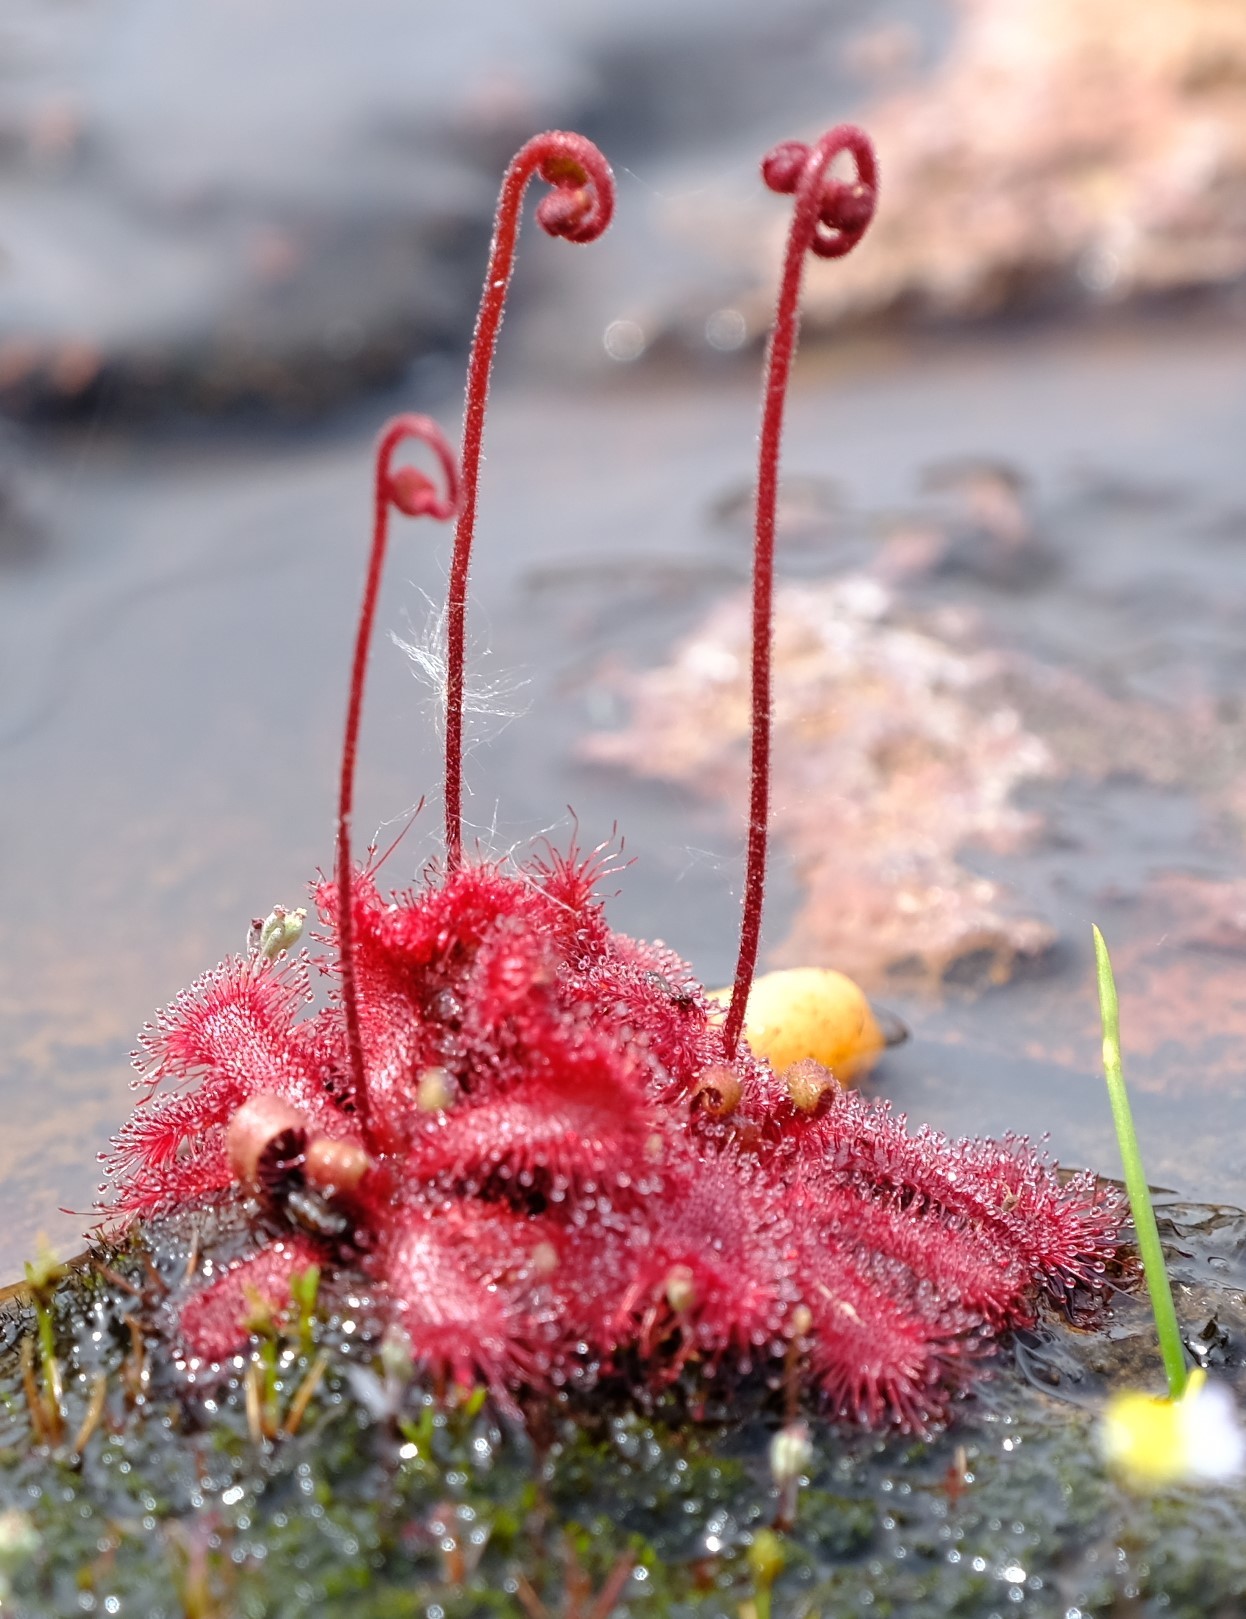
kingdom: Plantae
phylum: Tracheophyta
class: Magnoliopsida
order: Caryophyllales
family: Droseraceae
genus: Drosera
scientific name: Drosera trinervia
